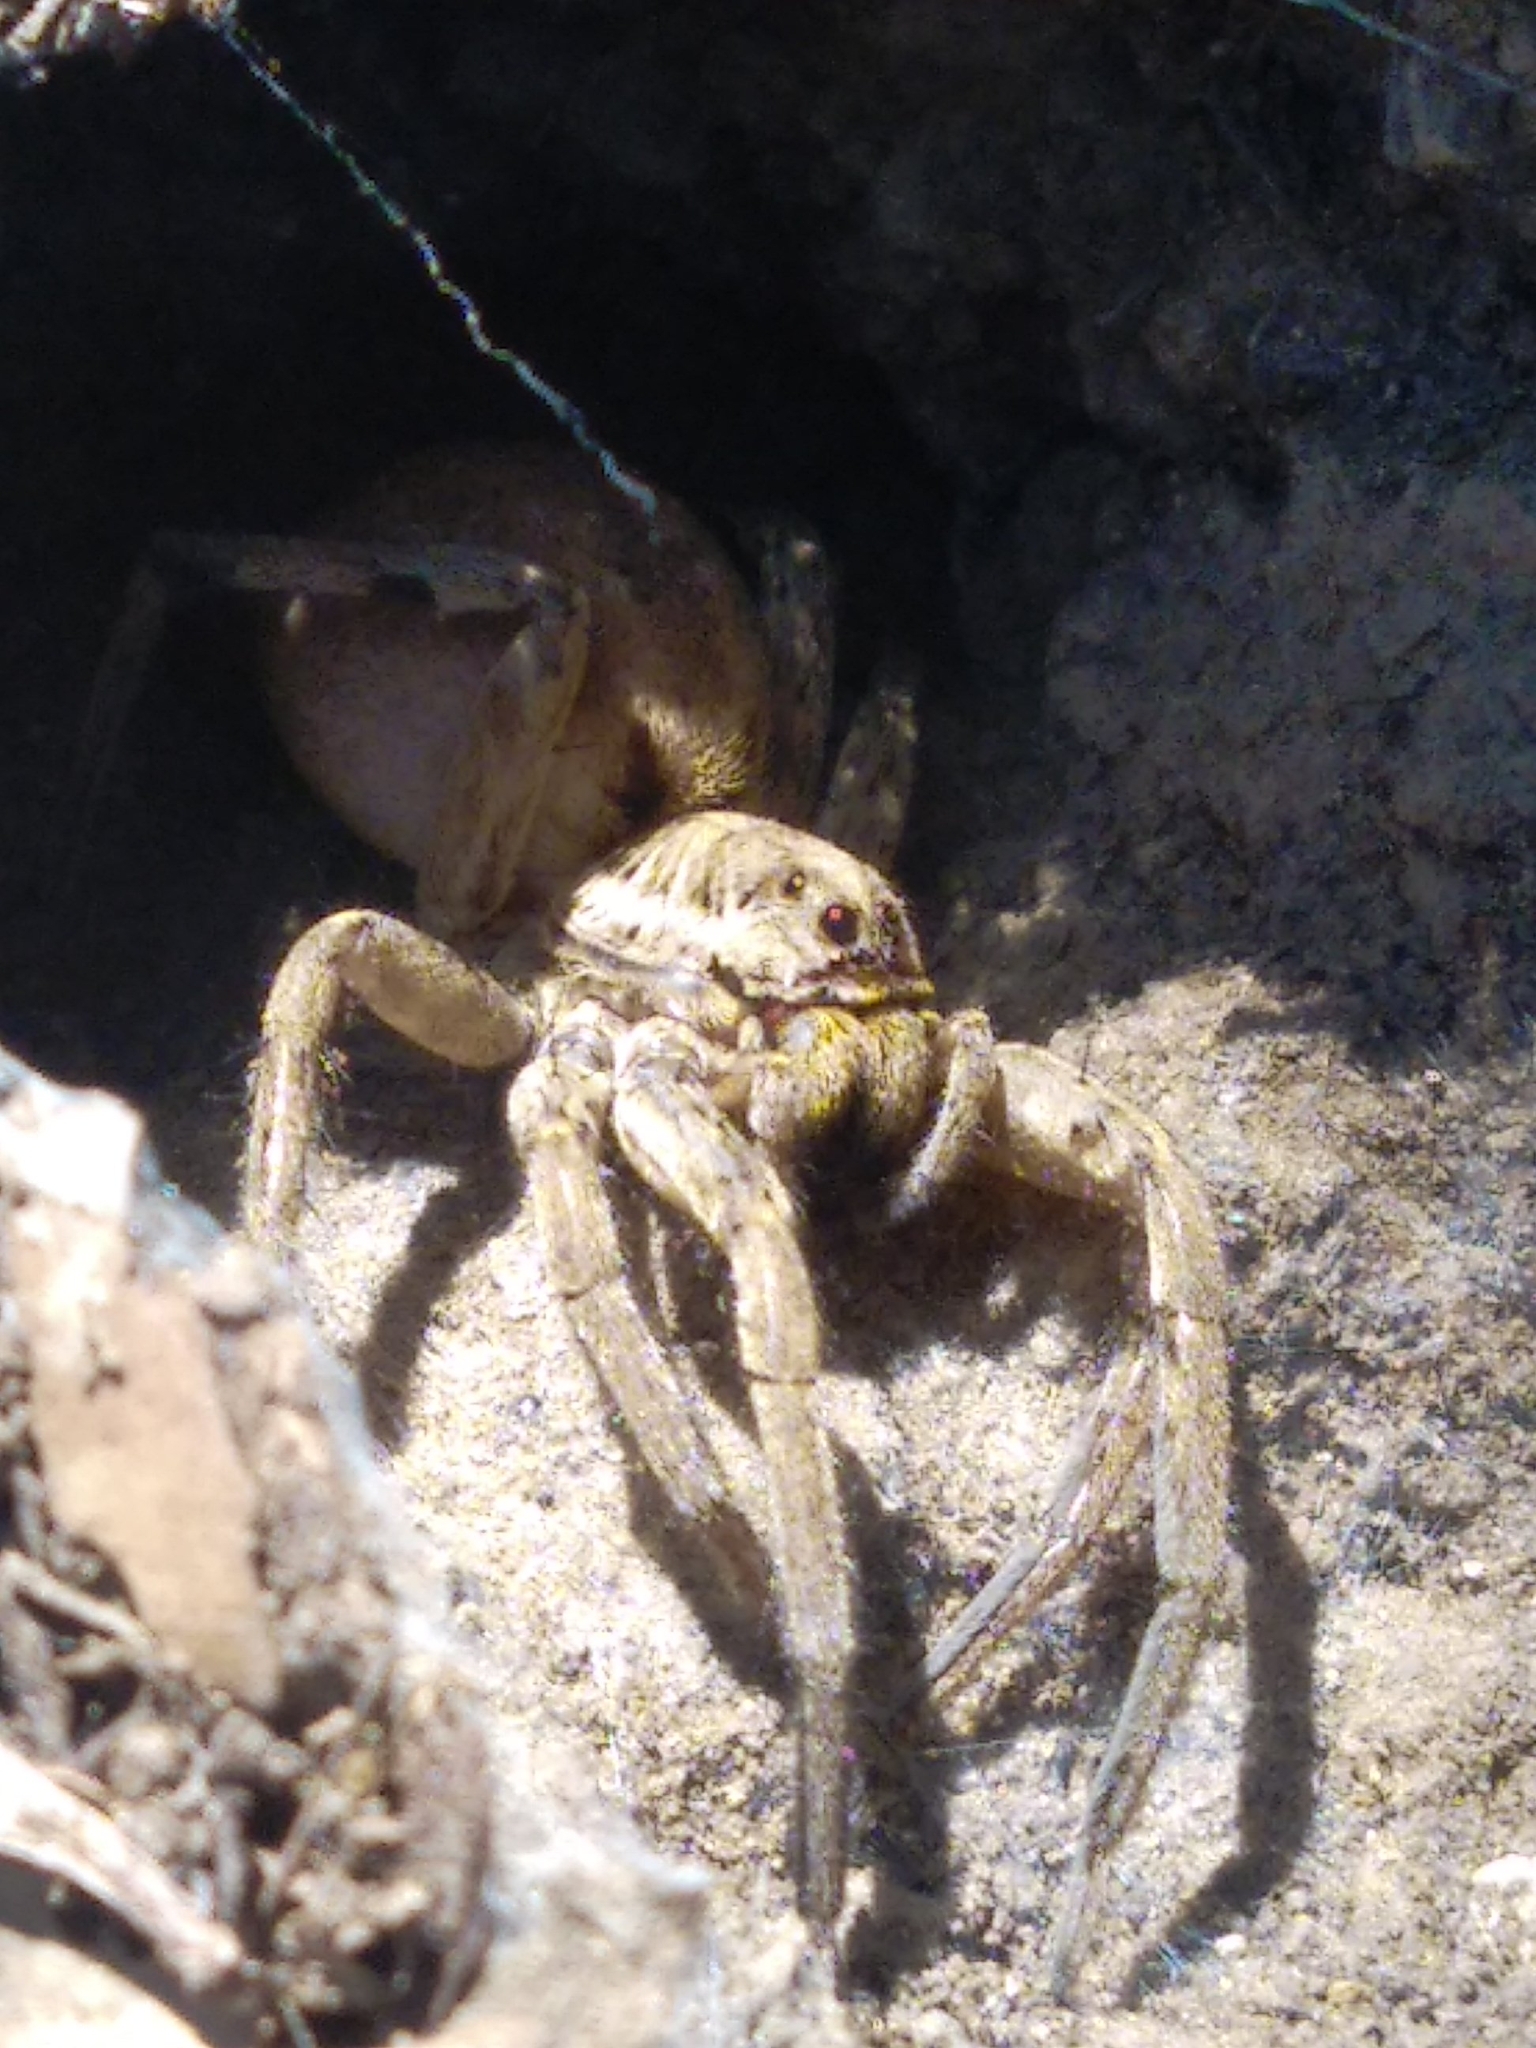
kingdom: Animalia
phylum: Arthropoda
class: Arachnida
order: Araneae
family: Lycosidae
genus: Hogna
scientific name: Hogna radiata
